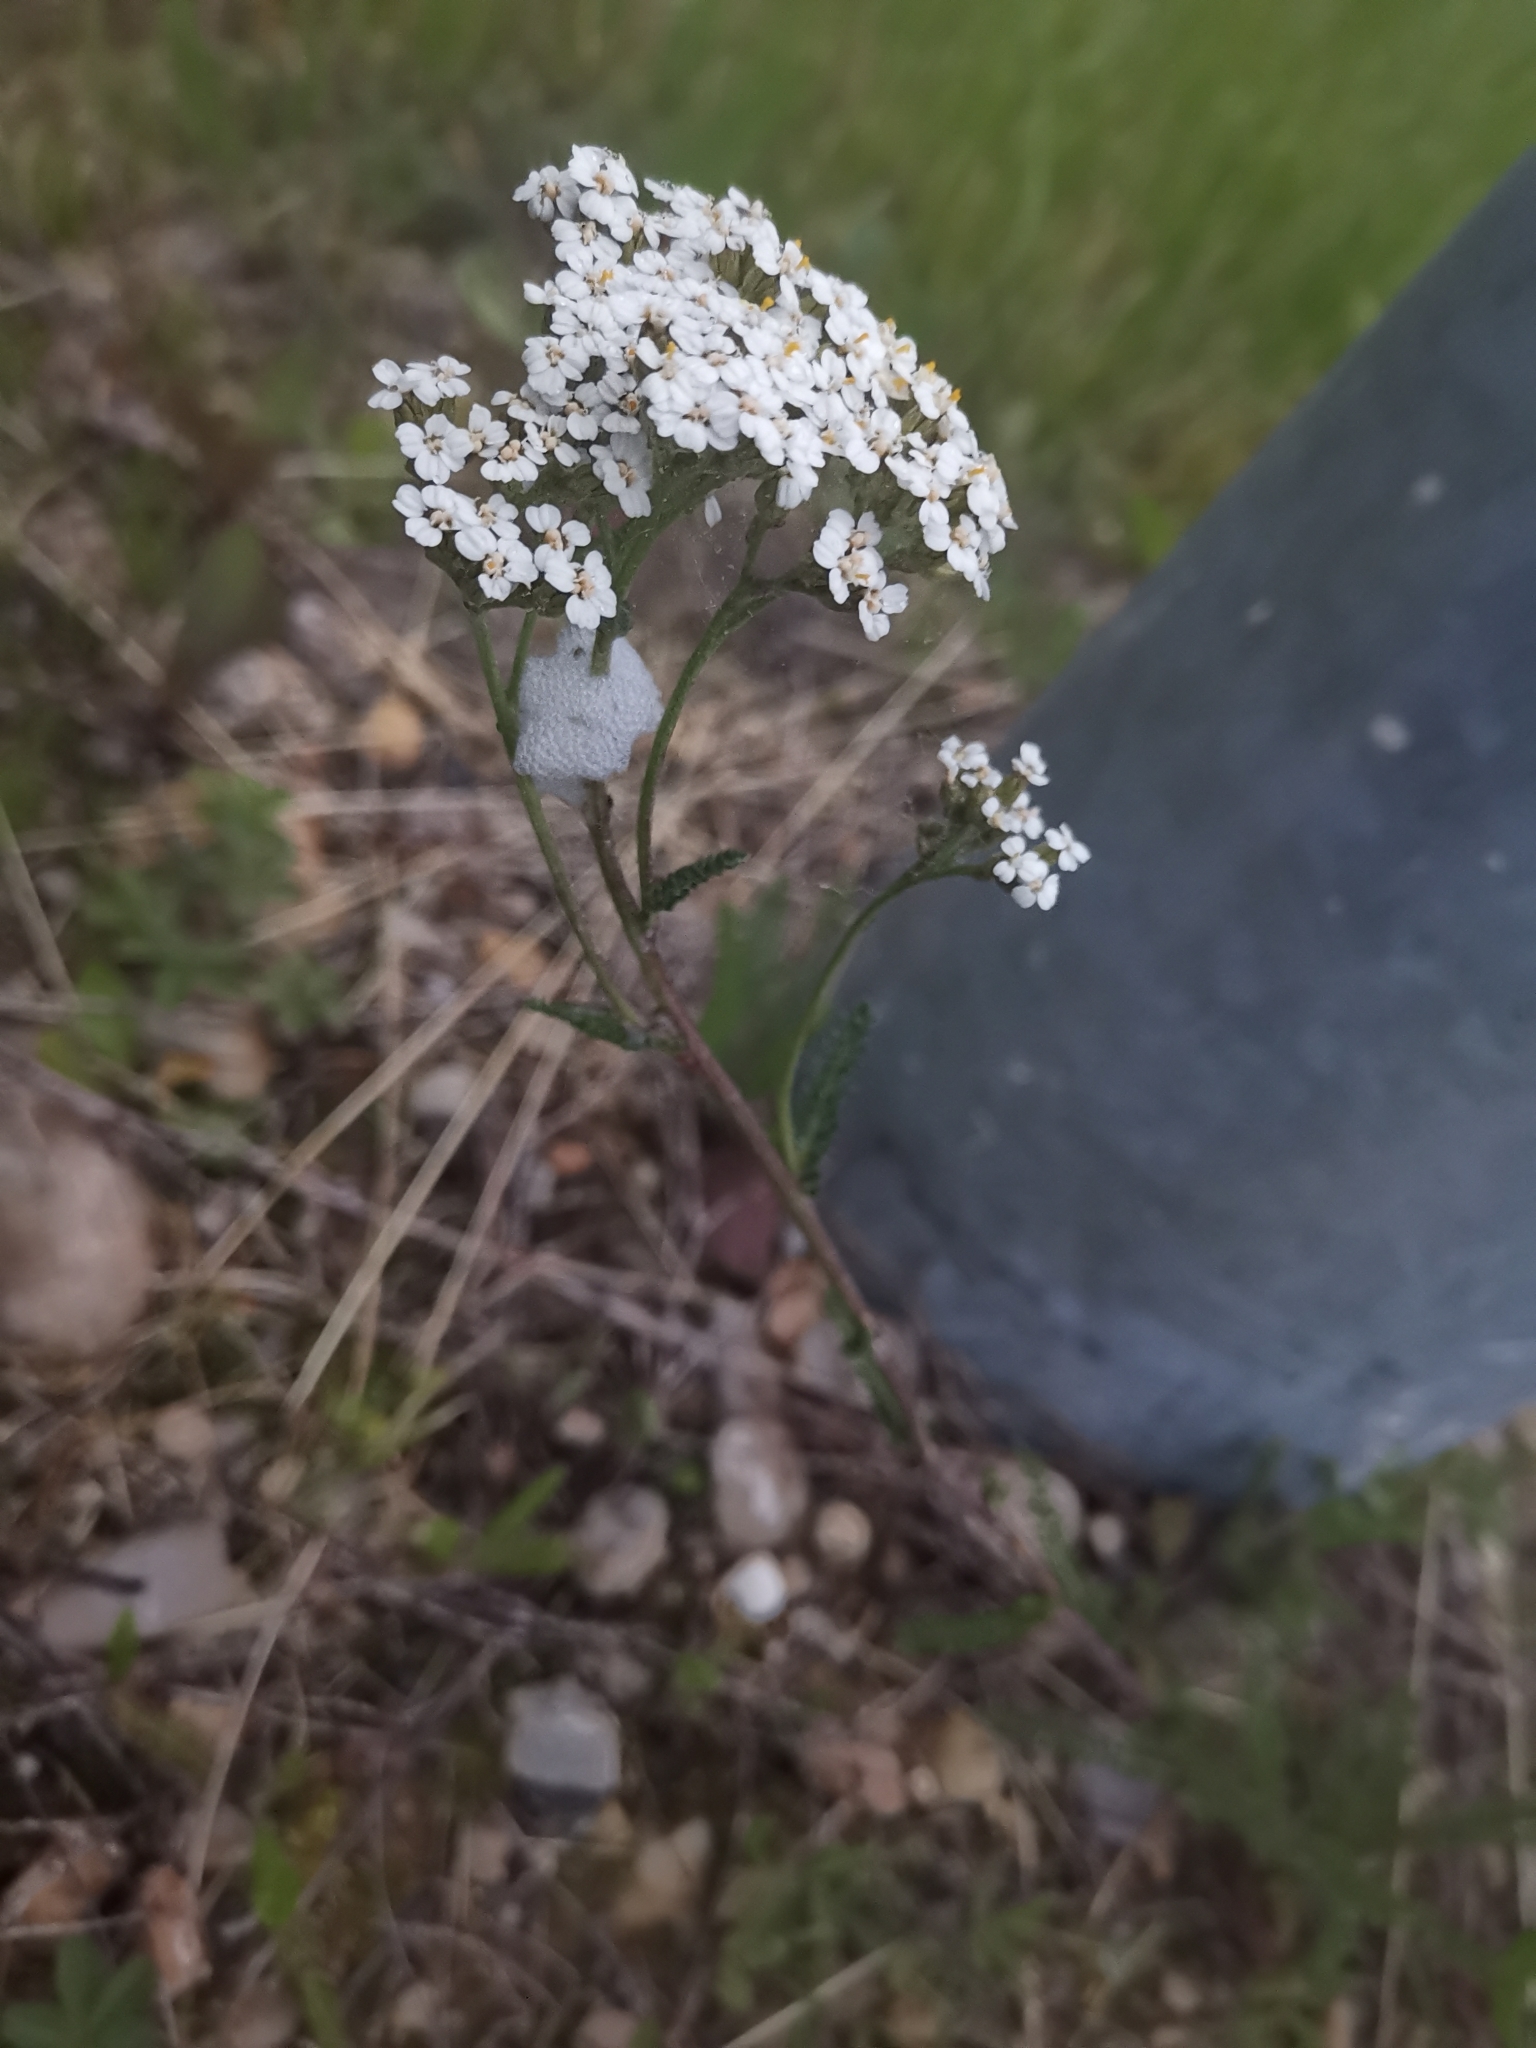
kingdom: Plantae
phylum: Tracheophyta
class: Magnoliopsida
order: Asterales
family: Asteraceae
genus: Achillea
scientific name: Achillea millefolium
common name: Yarrow
